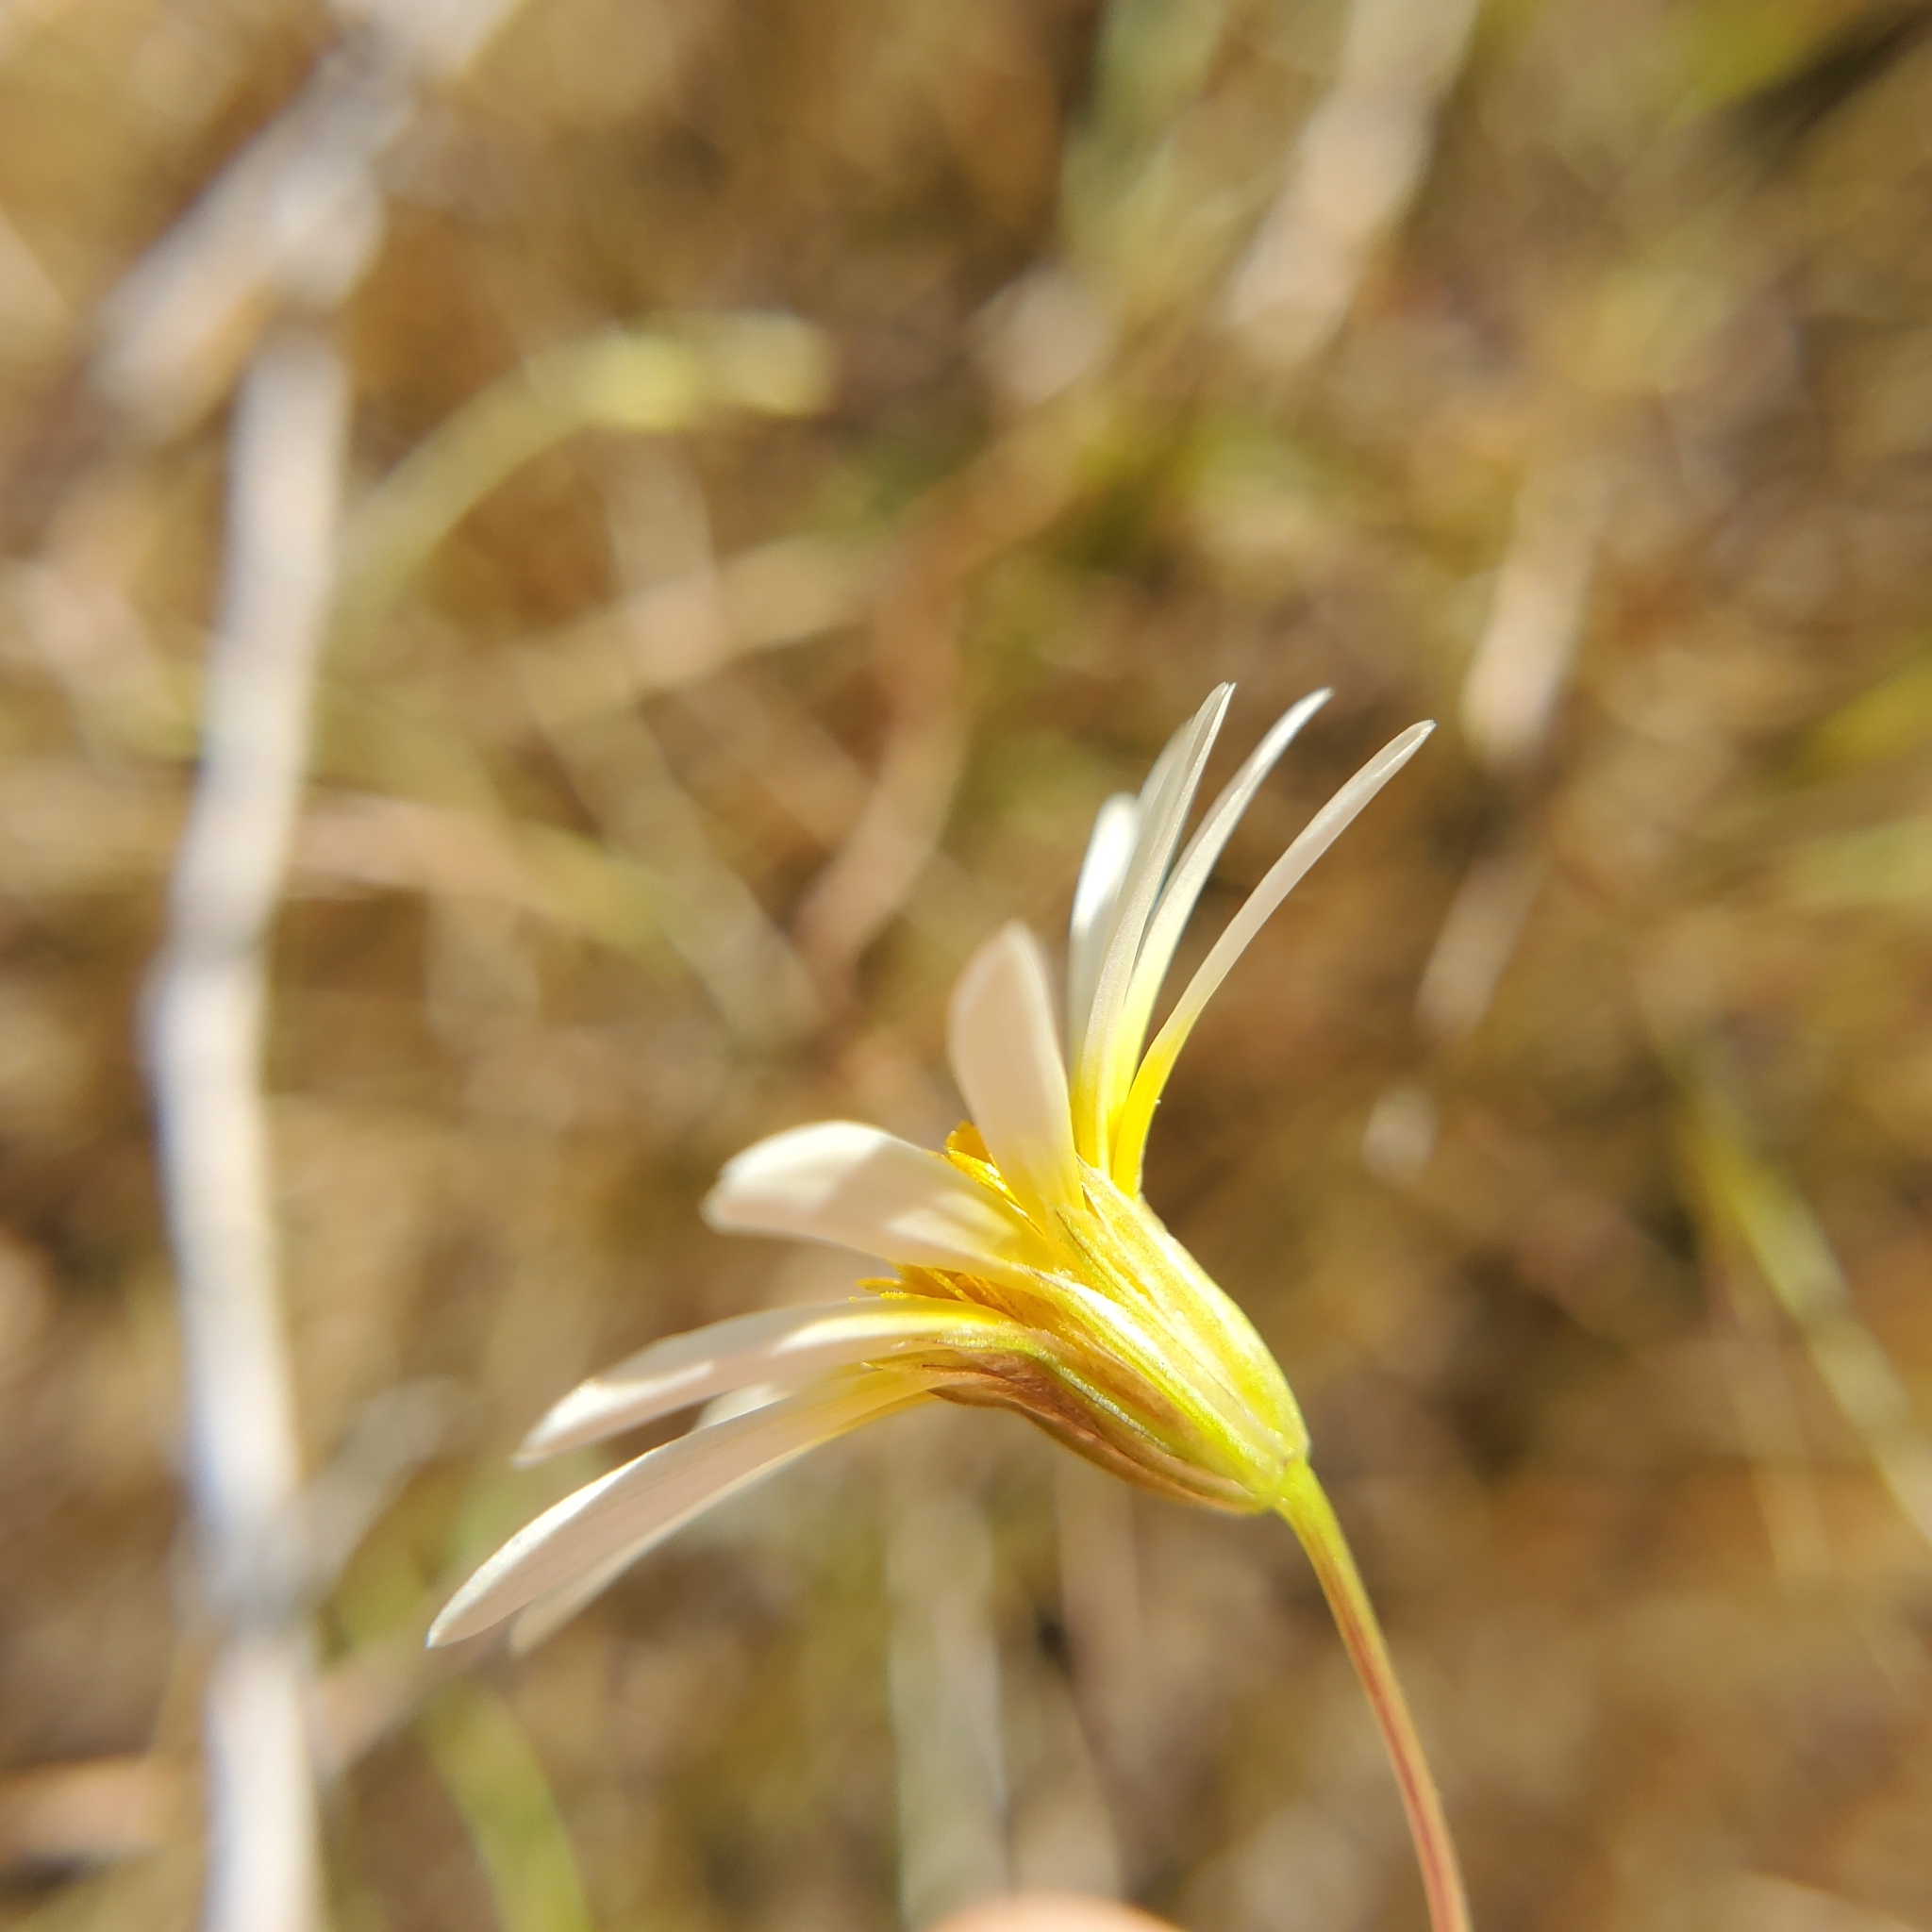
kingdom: Plantae
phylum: Tracheophyta
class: Magnoliopsida
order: Asterales
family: Asteraceae
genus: Pentachaeta
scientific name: Pentachaeta aurea
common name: Golden-ray pentachaeta
